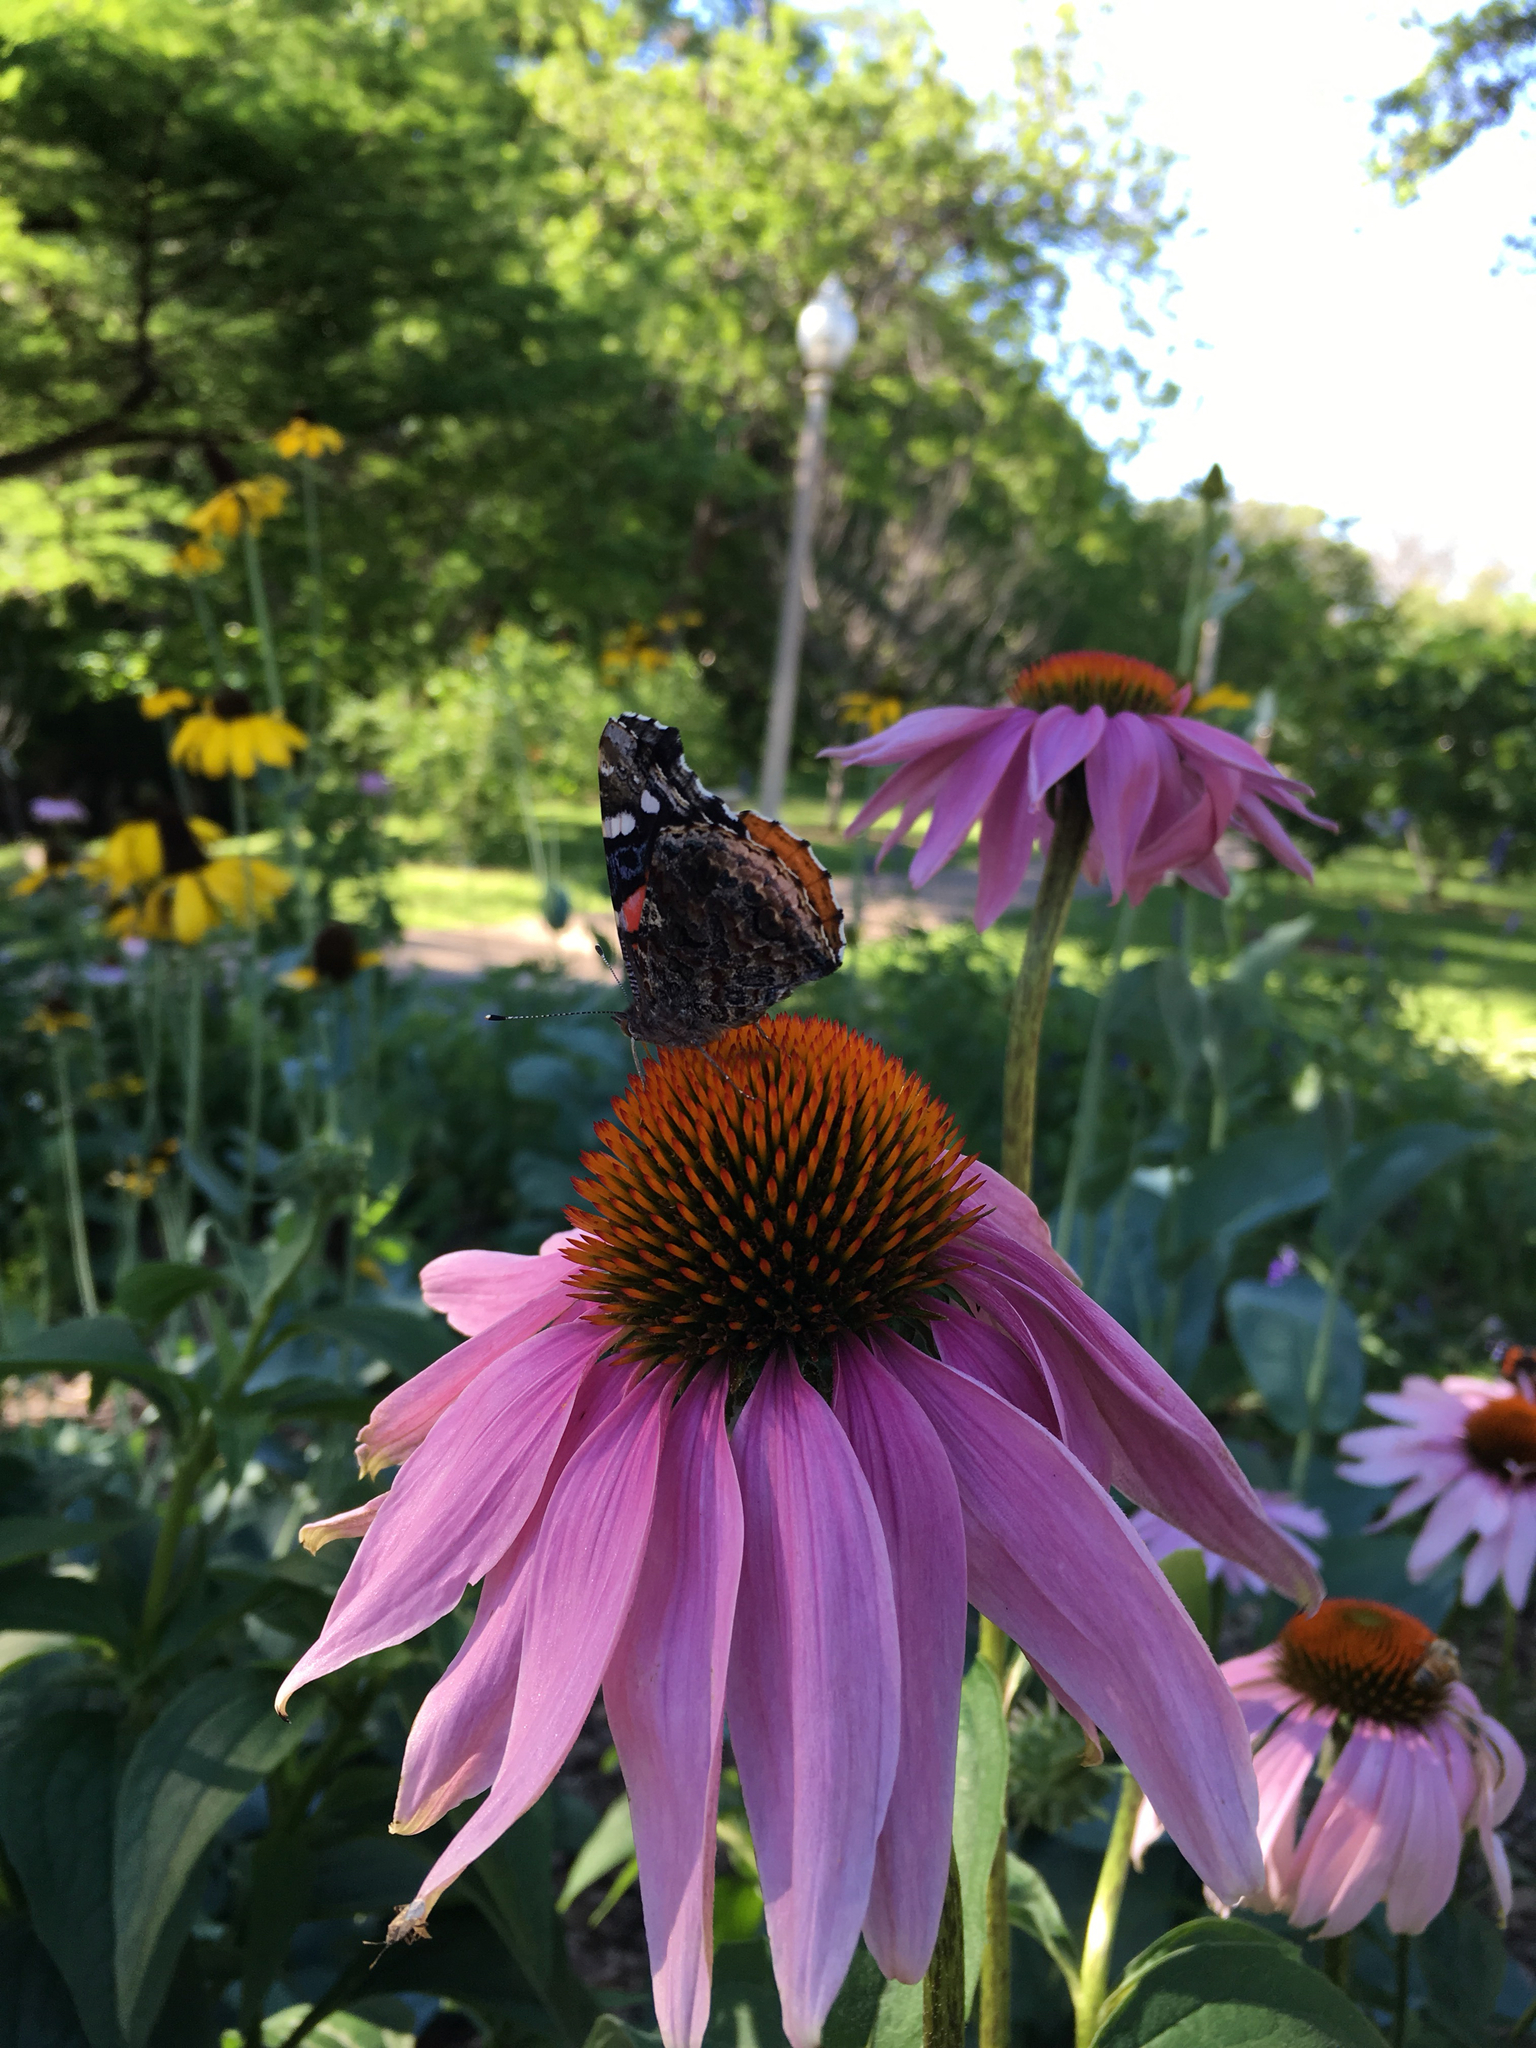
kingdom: Animalia
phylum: Arthropoda
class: Insecta
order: Lepidoptera
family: Nymphalidae
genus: Vanessa
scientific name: Vanessa atalanta
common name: Red admiral
